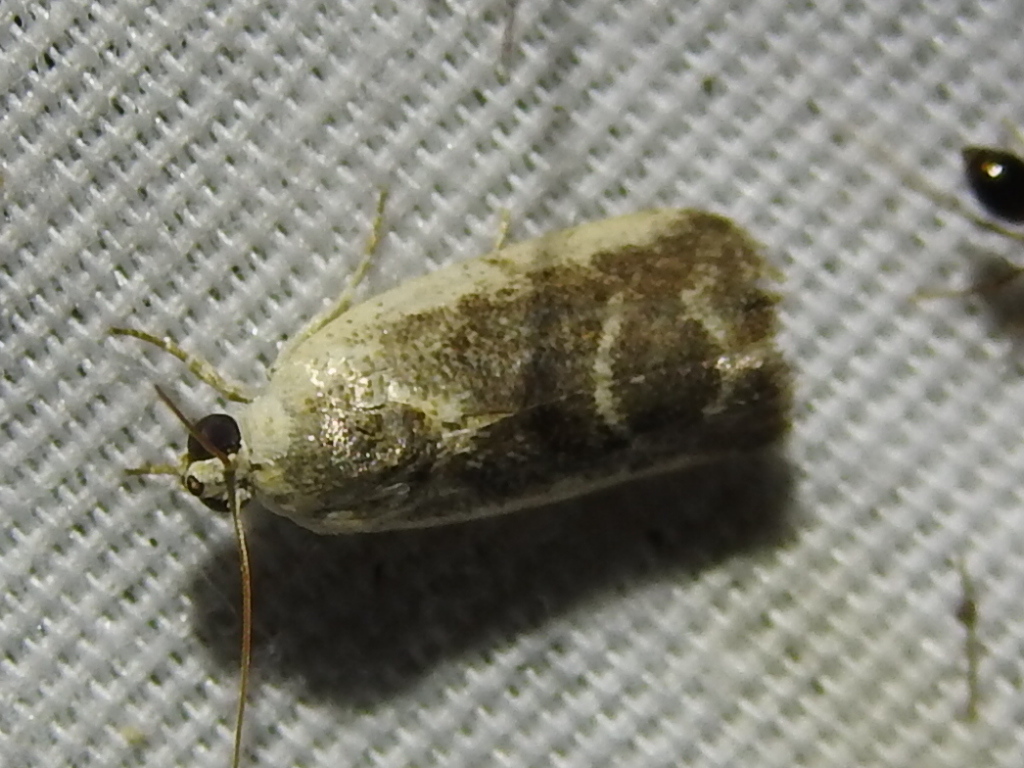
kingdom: Animalia
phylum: Arthropoda
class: Insecta
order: Lepidoptera
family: Noctuidae
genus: Acontia
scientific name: Acontia fasciatella
